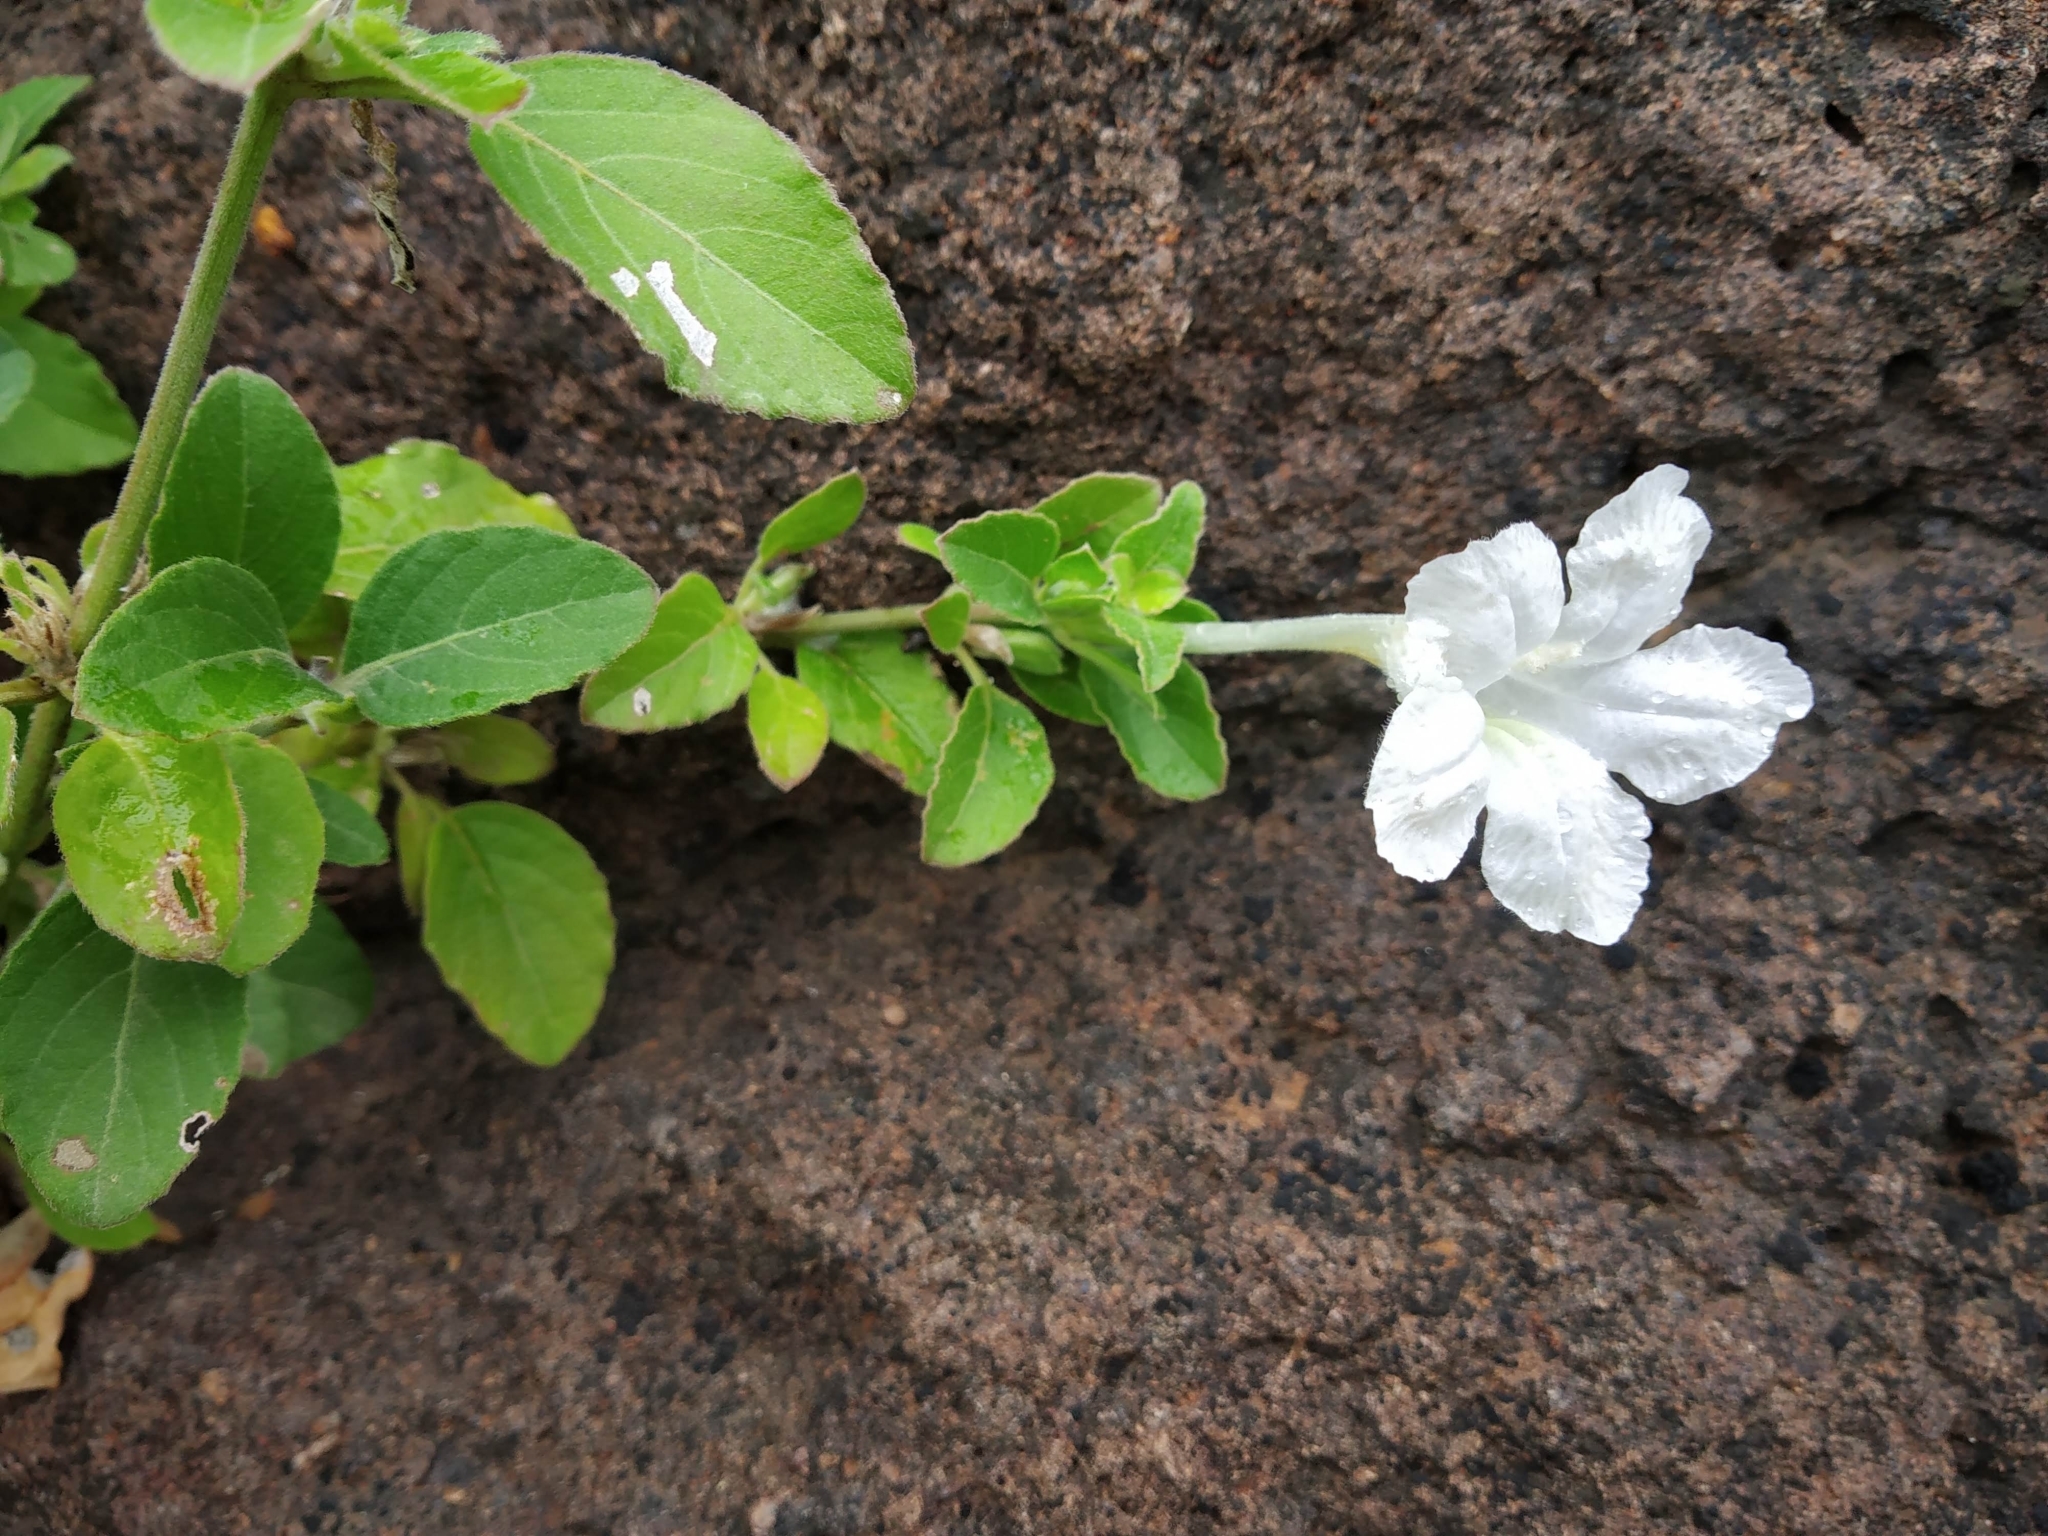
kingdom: Plantae
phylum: Tracheophyta
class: Magnoliopsida
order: Lamiales
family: Acanthaceae
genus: Ruellia
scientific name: Ruellia pseudopatula
